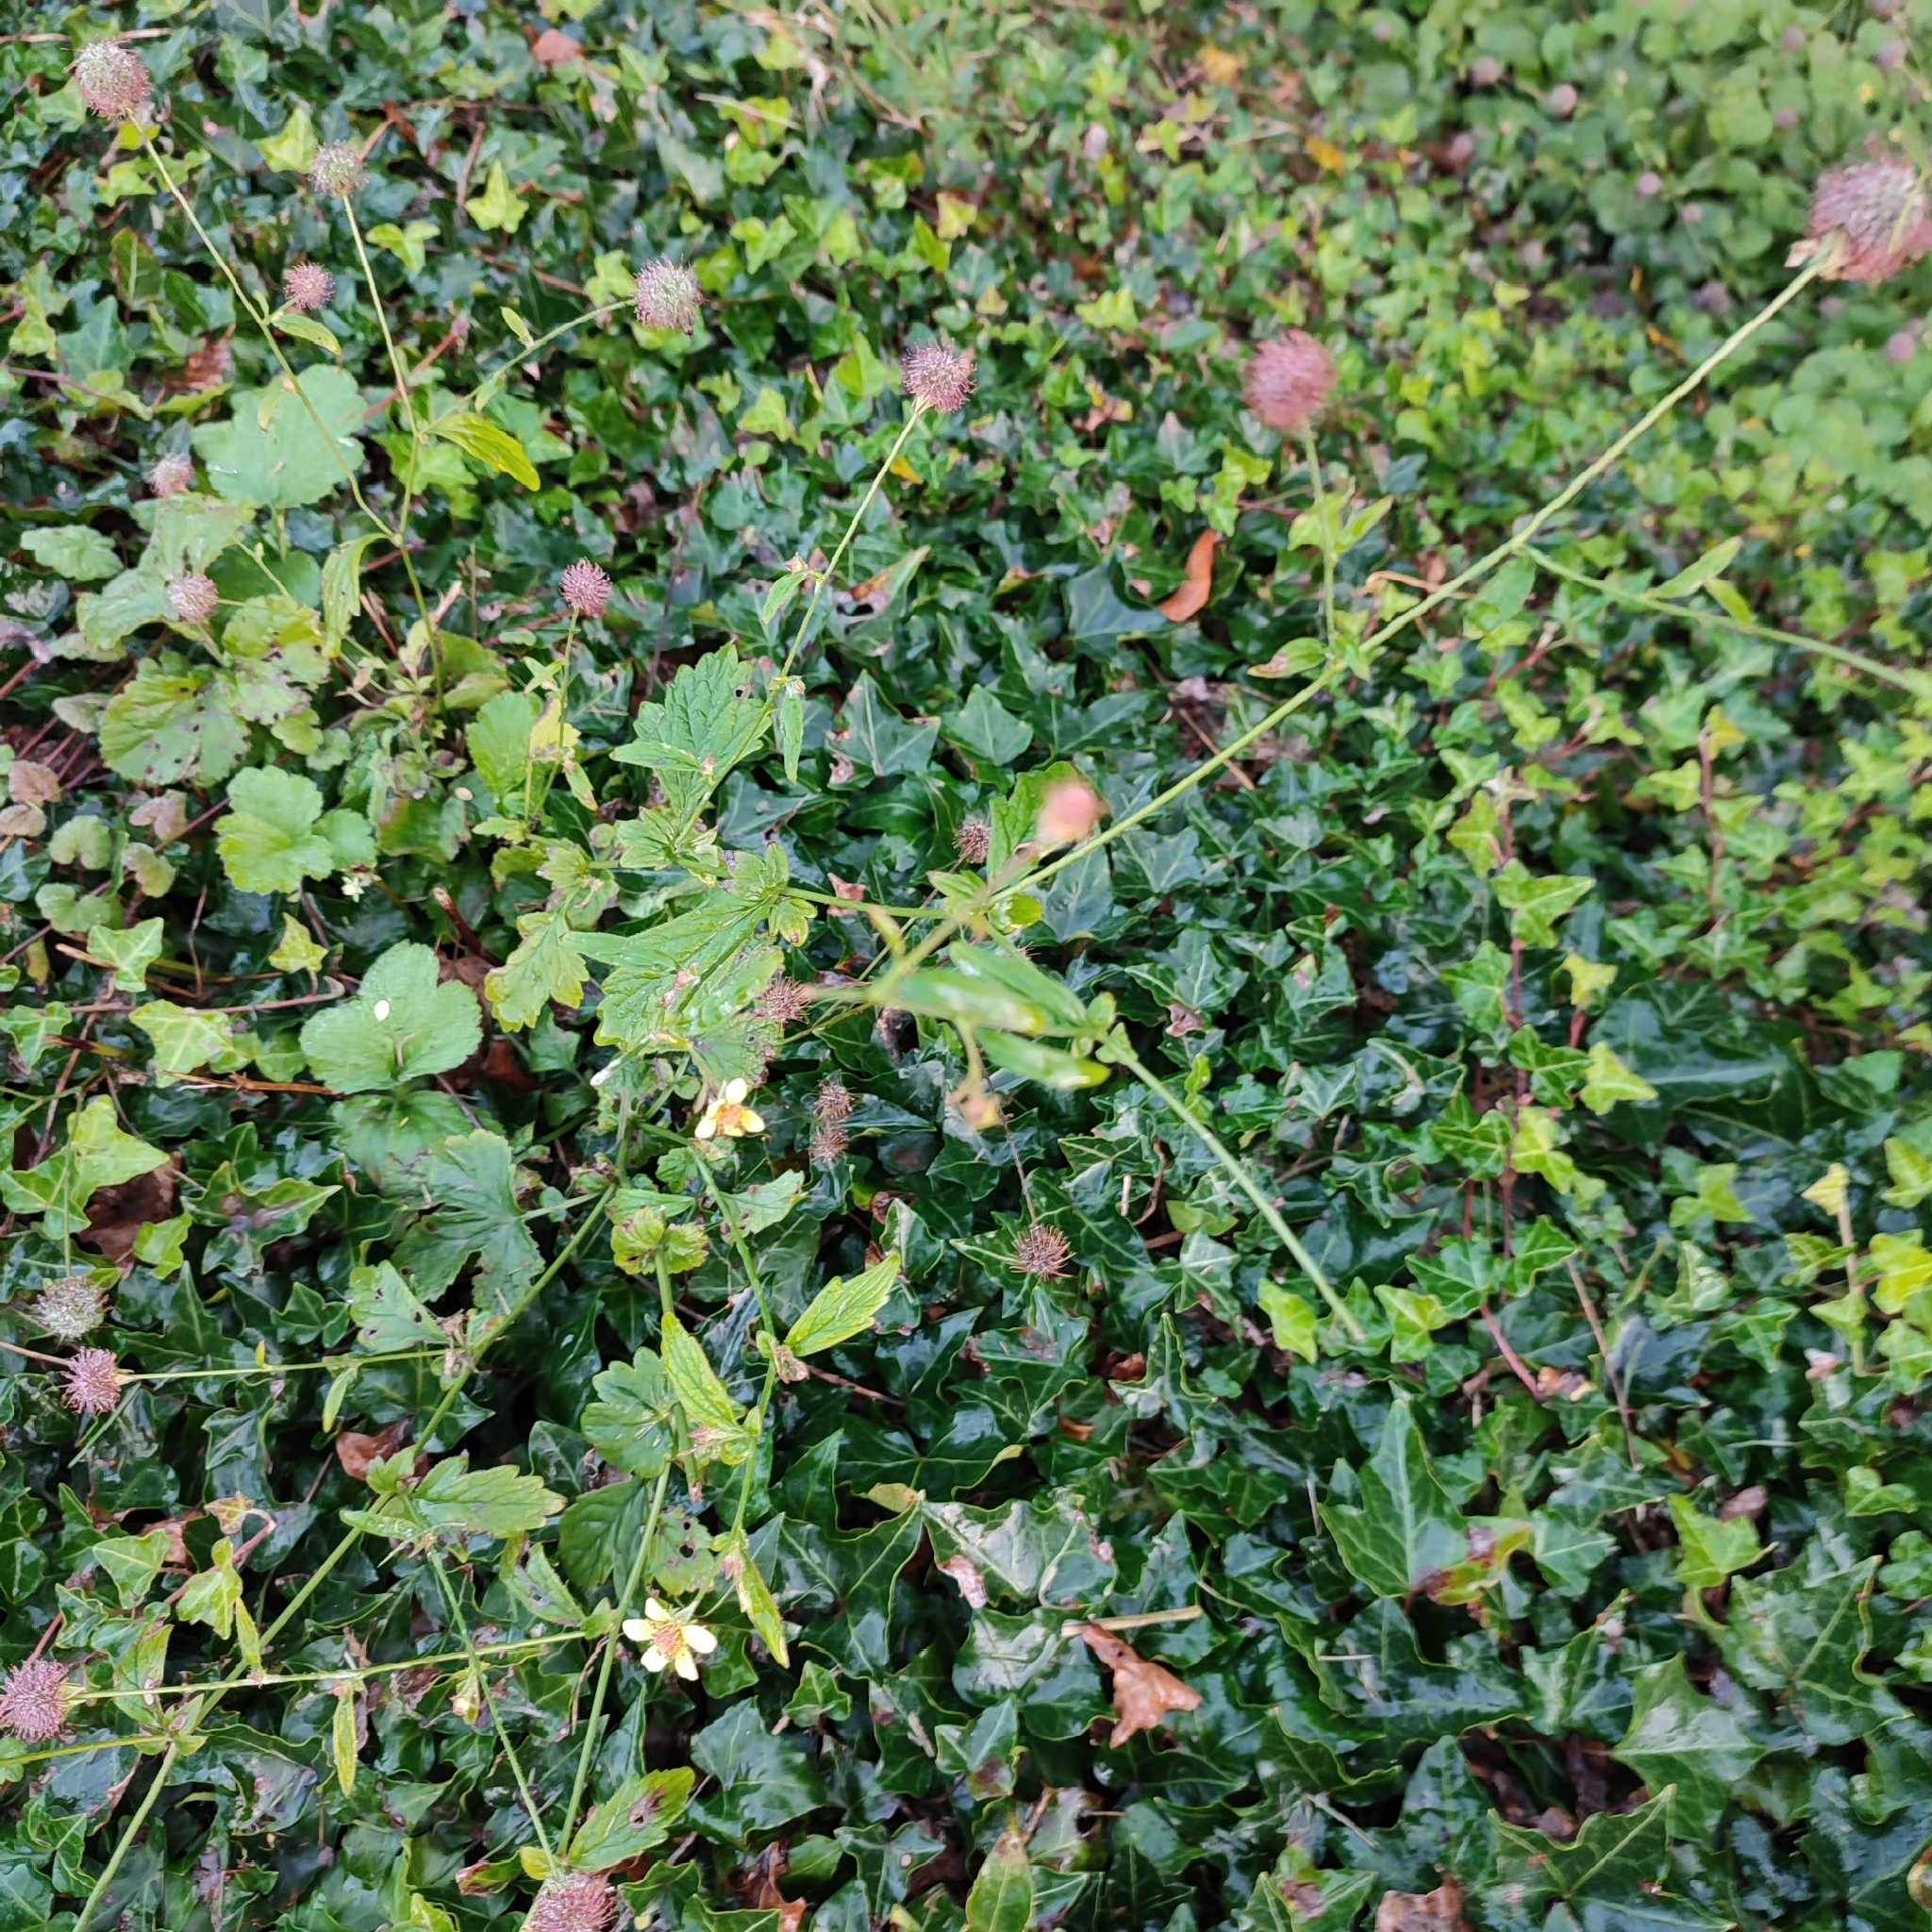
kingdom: Plantae
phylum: Tracheophyta
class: Magnoliopsida
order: Rosales
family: Rosaceae
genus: Geum
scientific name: Geum urbanum
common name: Wood avens
